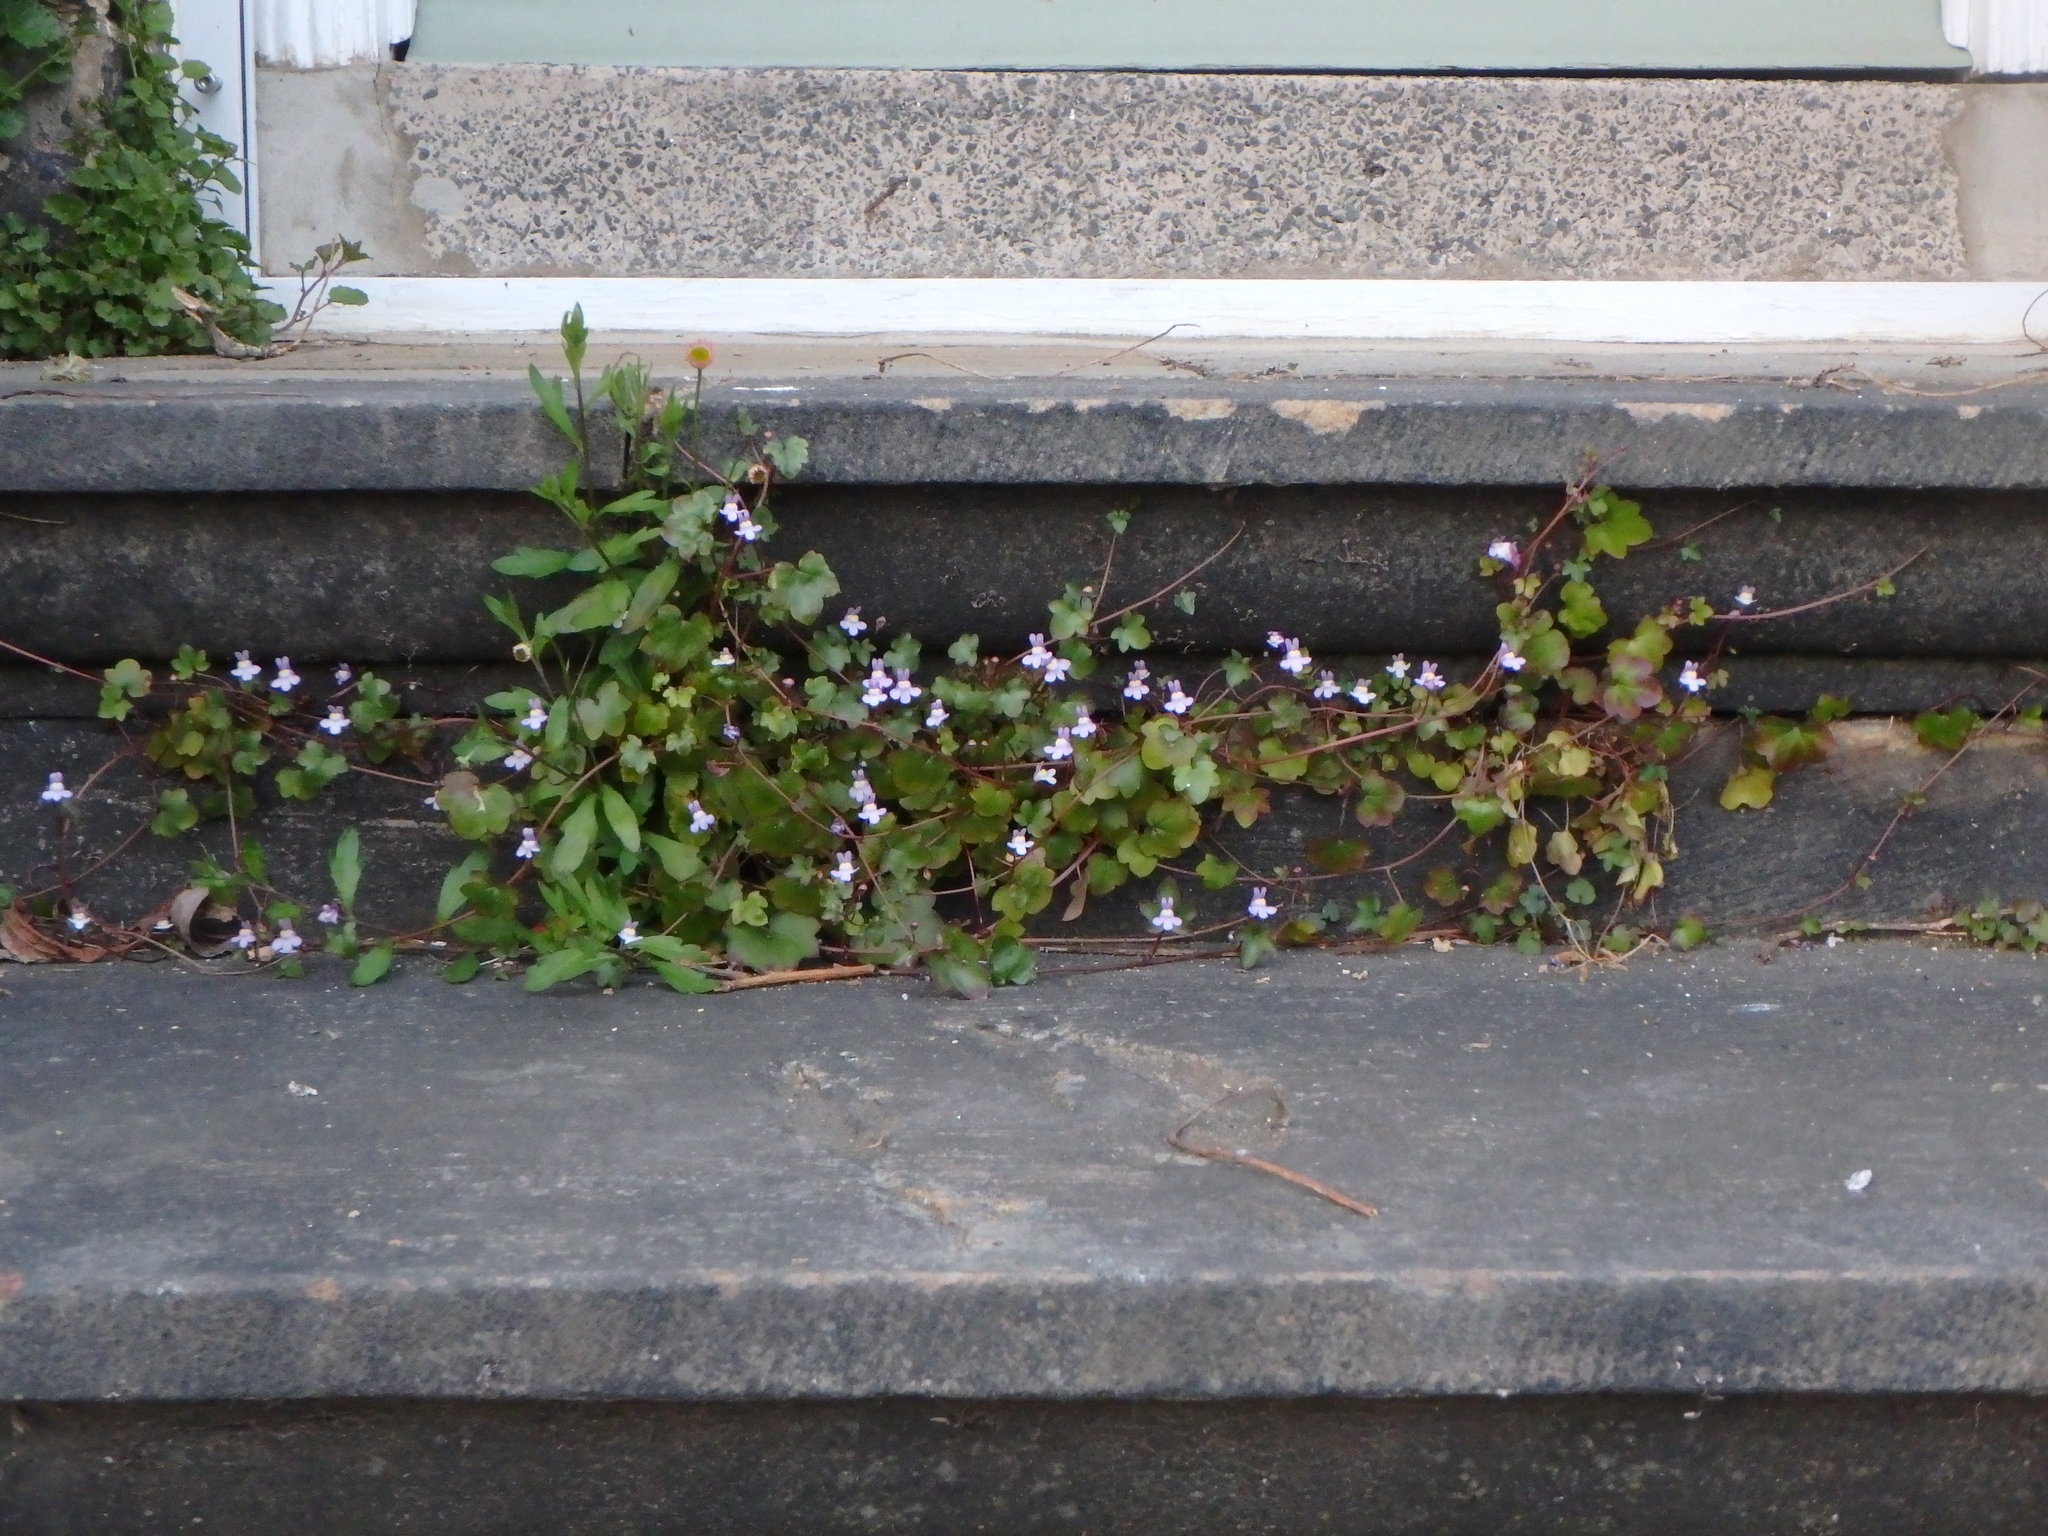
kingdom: Plantae
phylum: Tracheophyta
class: Magnoliopsida
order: Lamiales
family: Plantaginaceae
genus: Cymbalaria
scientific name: Cymbalaria muralis
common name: Ivy-leaved toadflax
